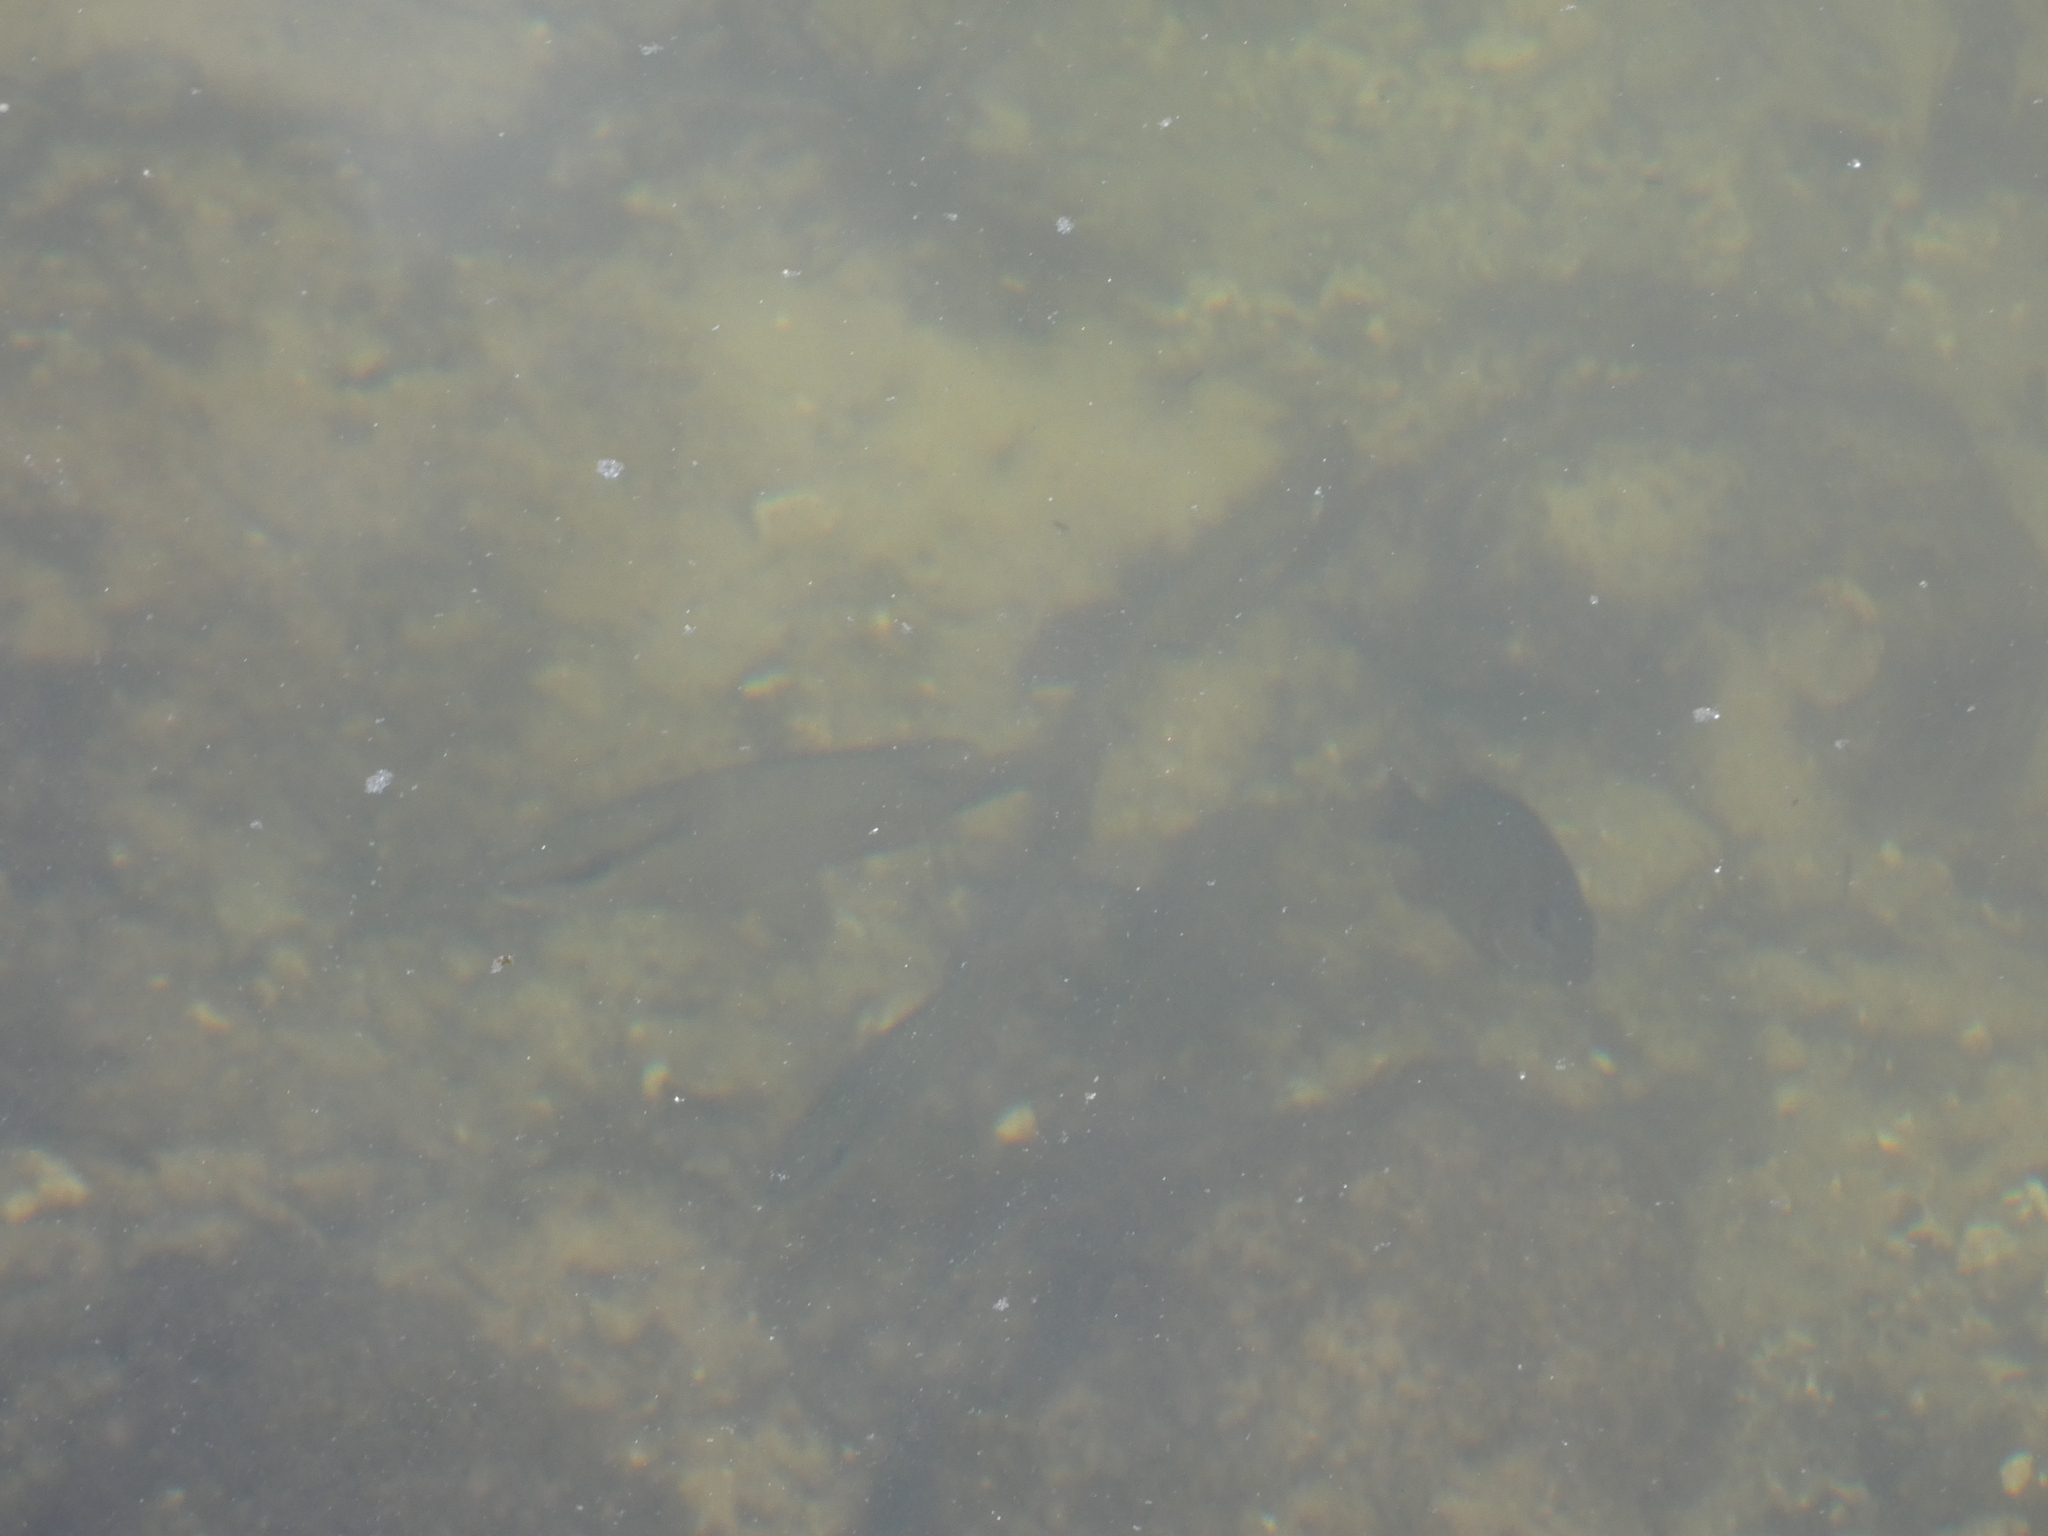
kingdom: Animalia
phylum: Chordata
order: Perciformes
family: Lutjanidae
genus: Lutjanus
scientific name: Lutjanus griseus
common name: Gray snapper
